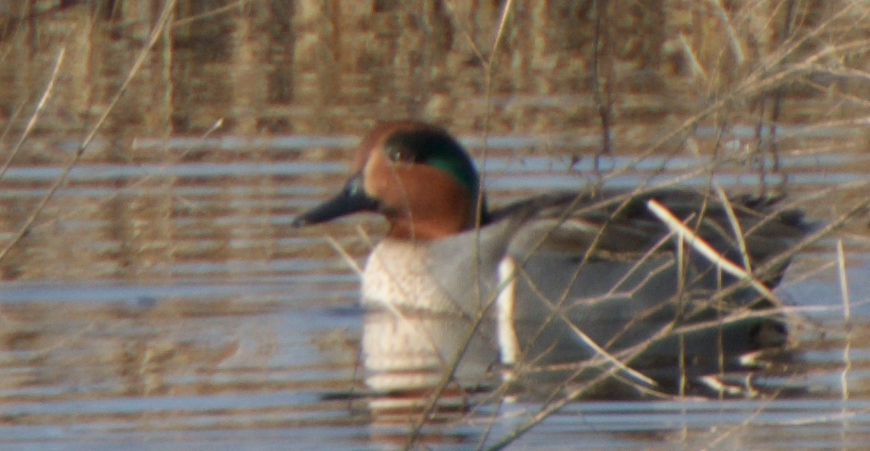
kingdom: Animalia
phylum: Chordata
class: Aves
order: Anseriformes
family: Anatidae
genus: Anas
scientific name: Anas crecca
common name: Eurasian teal
